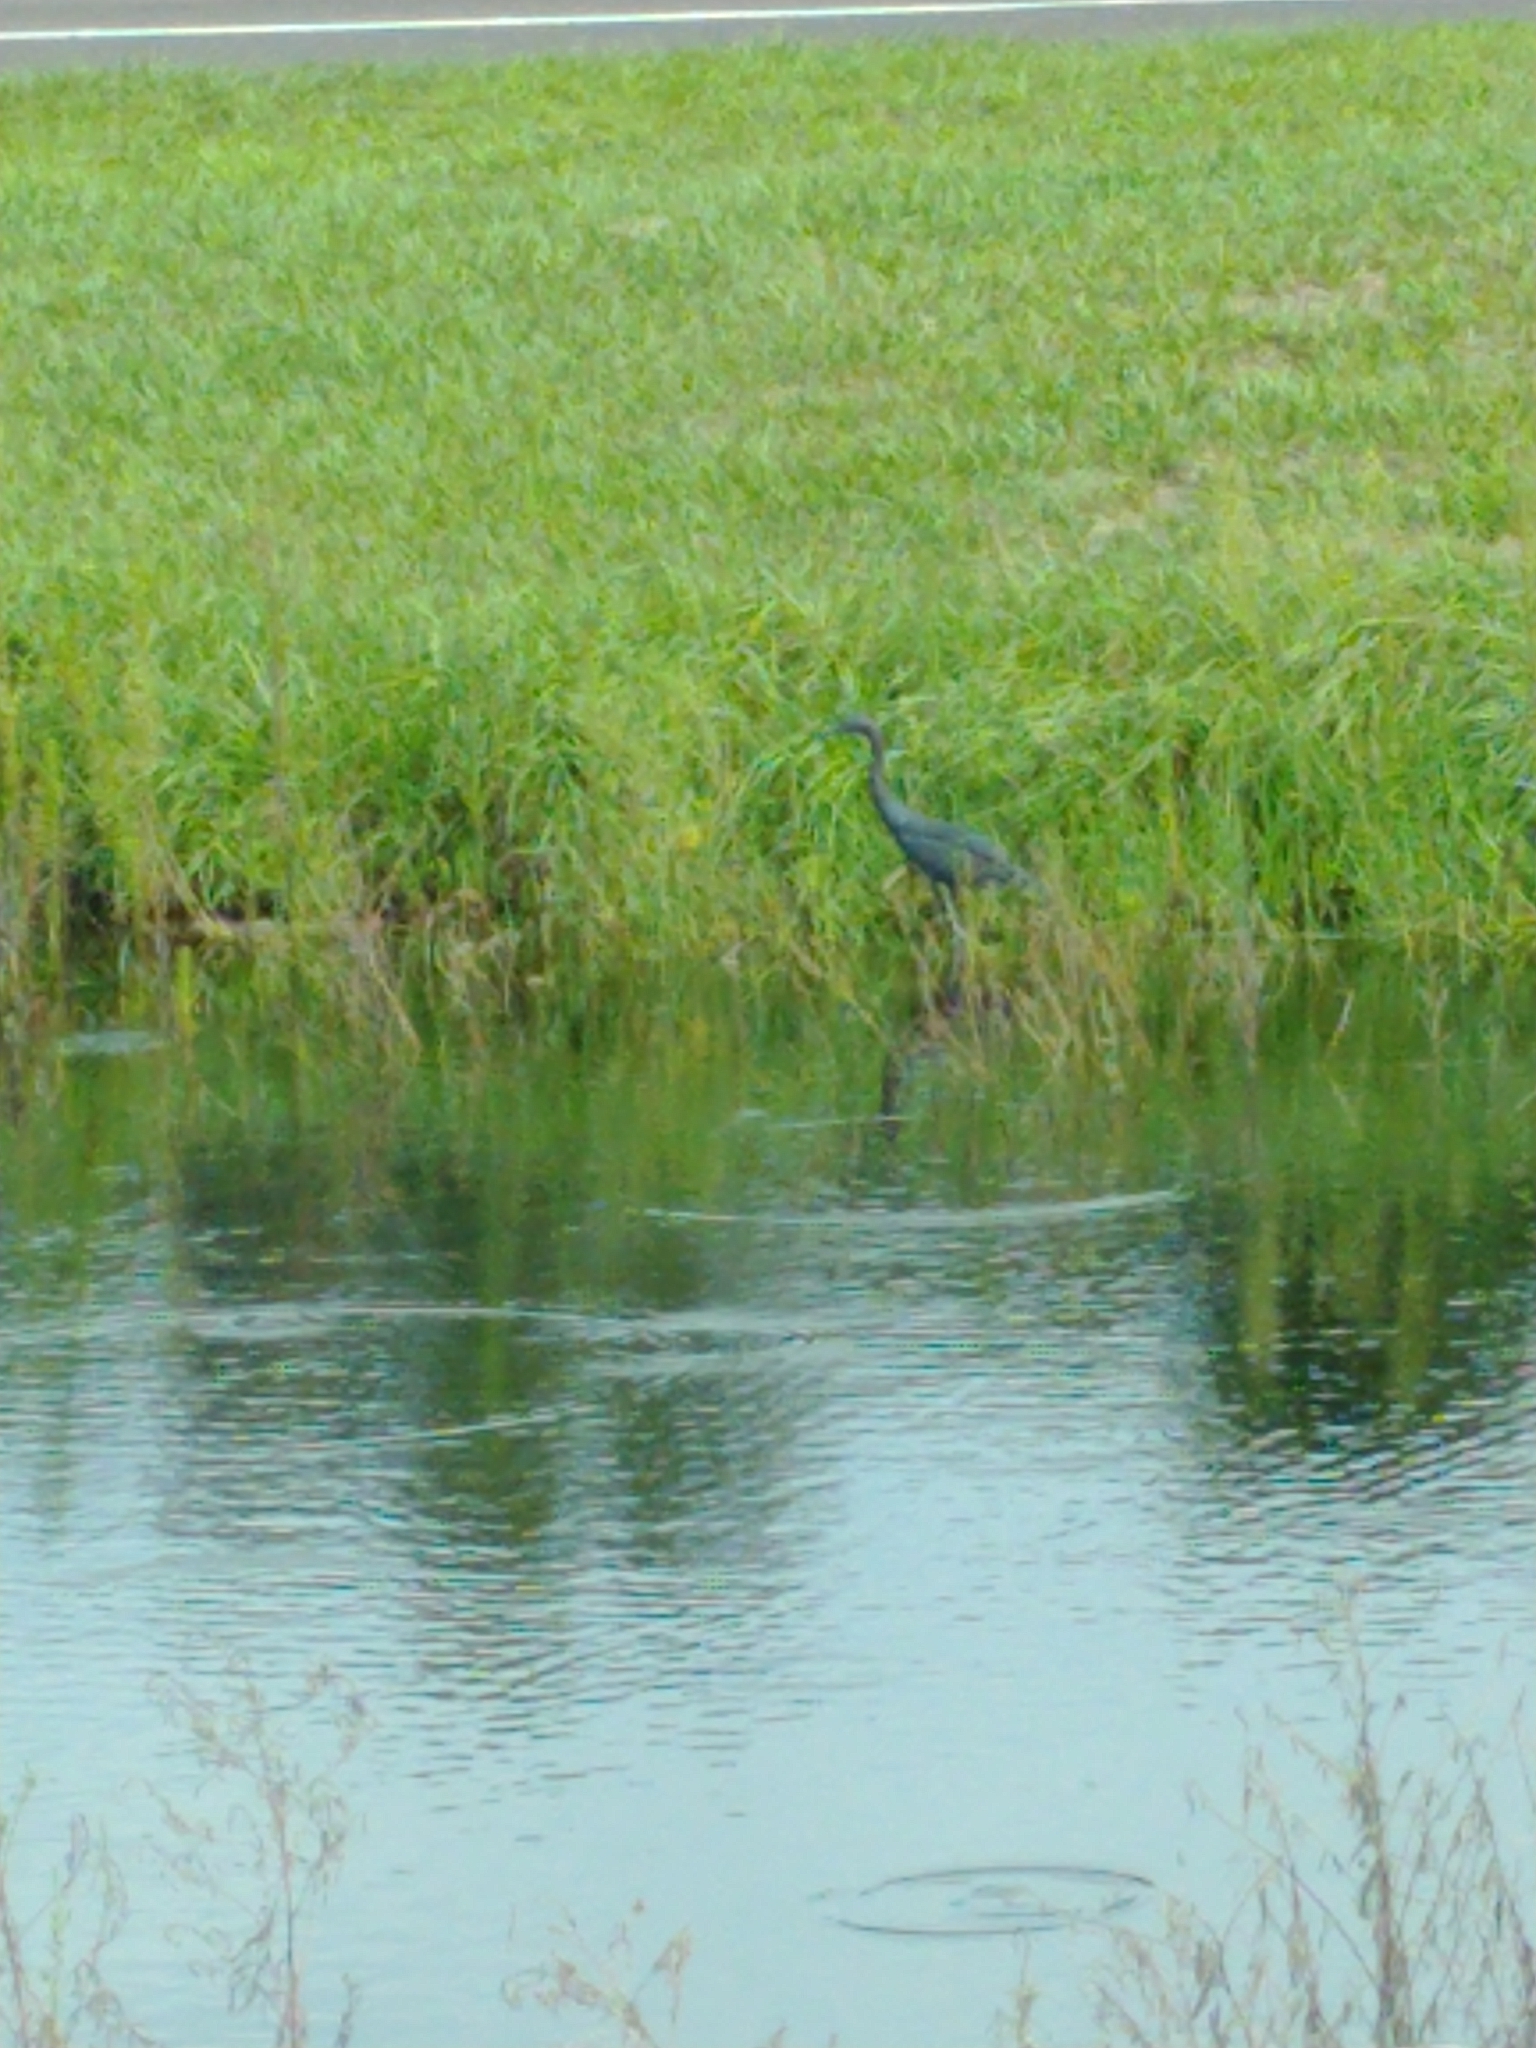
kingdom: Animalia
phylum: Chordata
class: Aves
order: Pelecaniformes
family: Ardeidae
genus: Egretta
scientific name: Egretta caerulea
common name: Little blue heron
